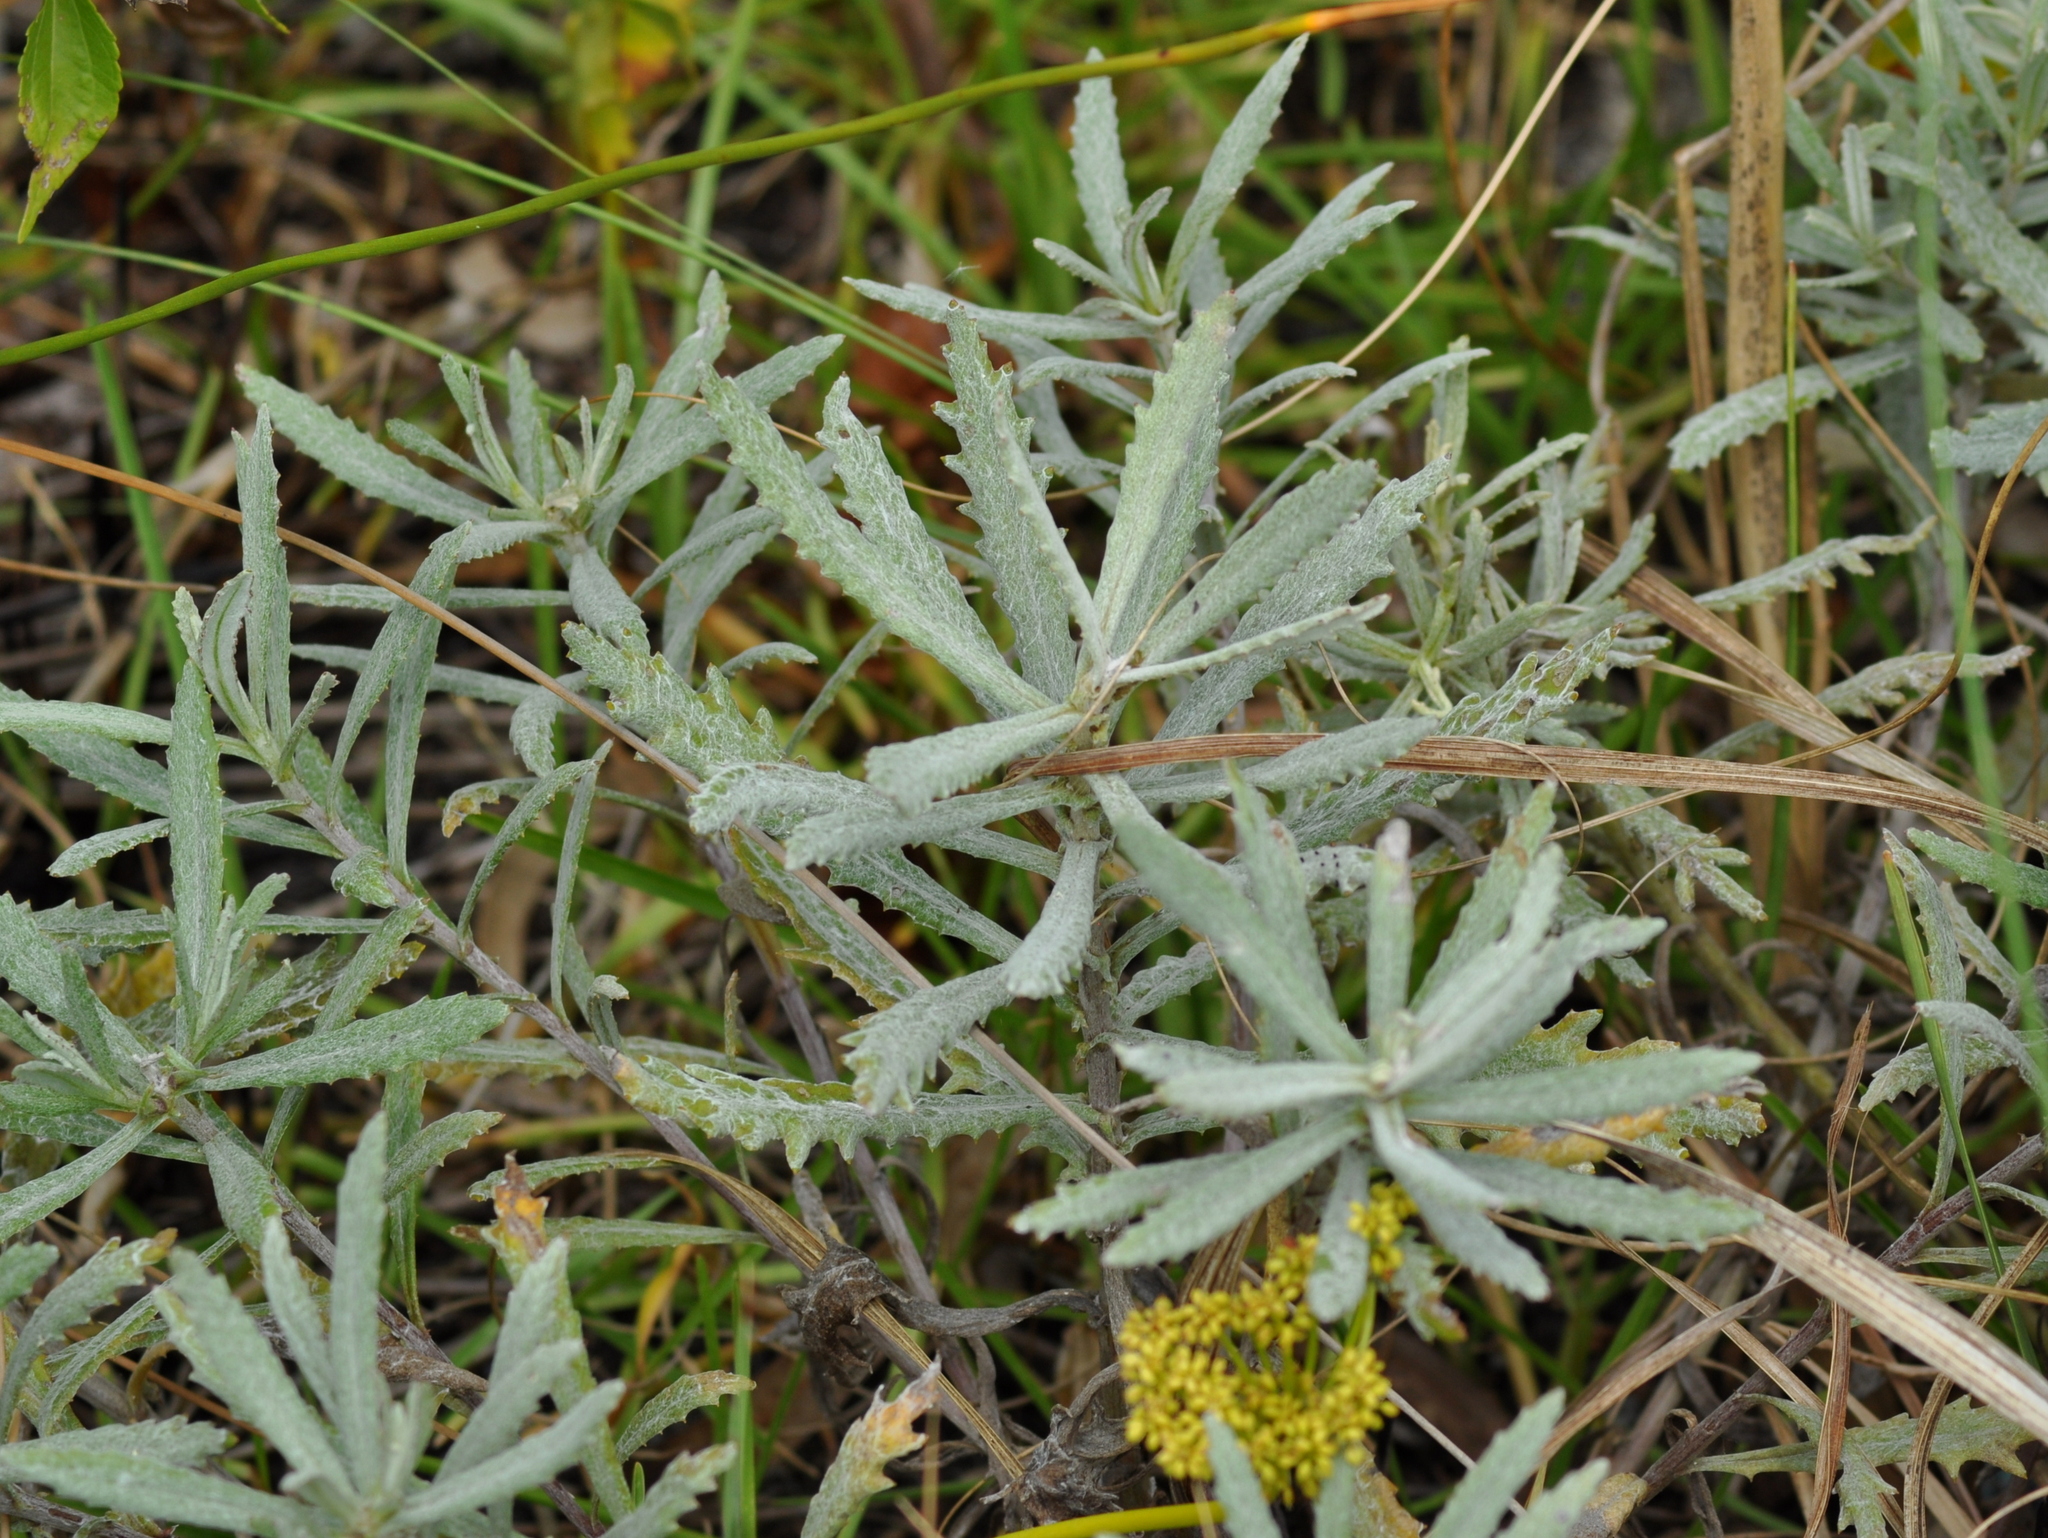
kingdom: Plantae
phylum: Tracheophyta
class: Magnoliopsida
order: Asterales
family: Asteraceae
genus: Senecio
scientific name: Senecio heterotrichius
